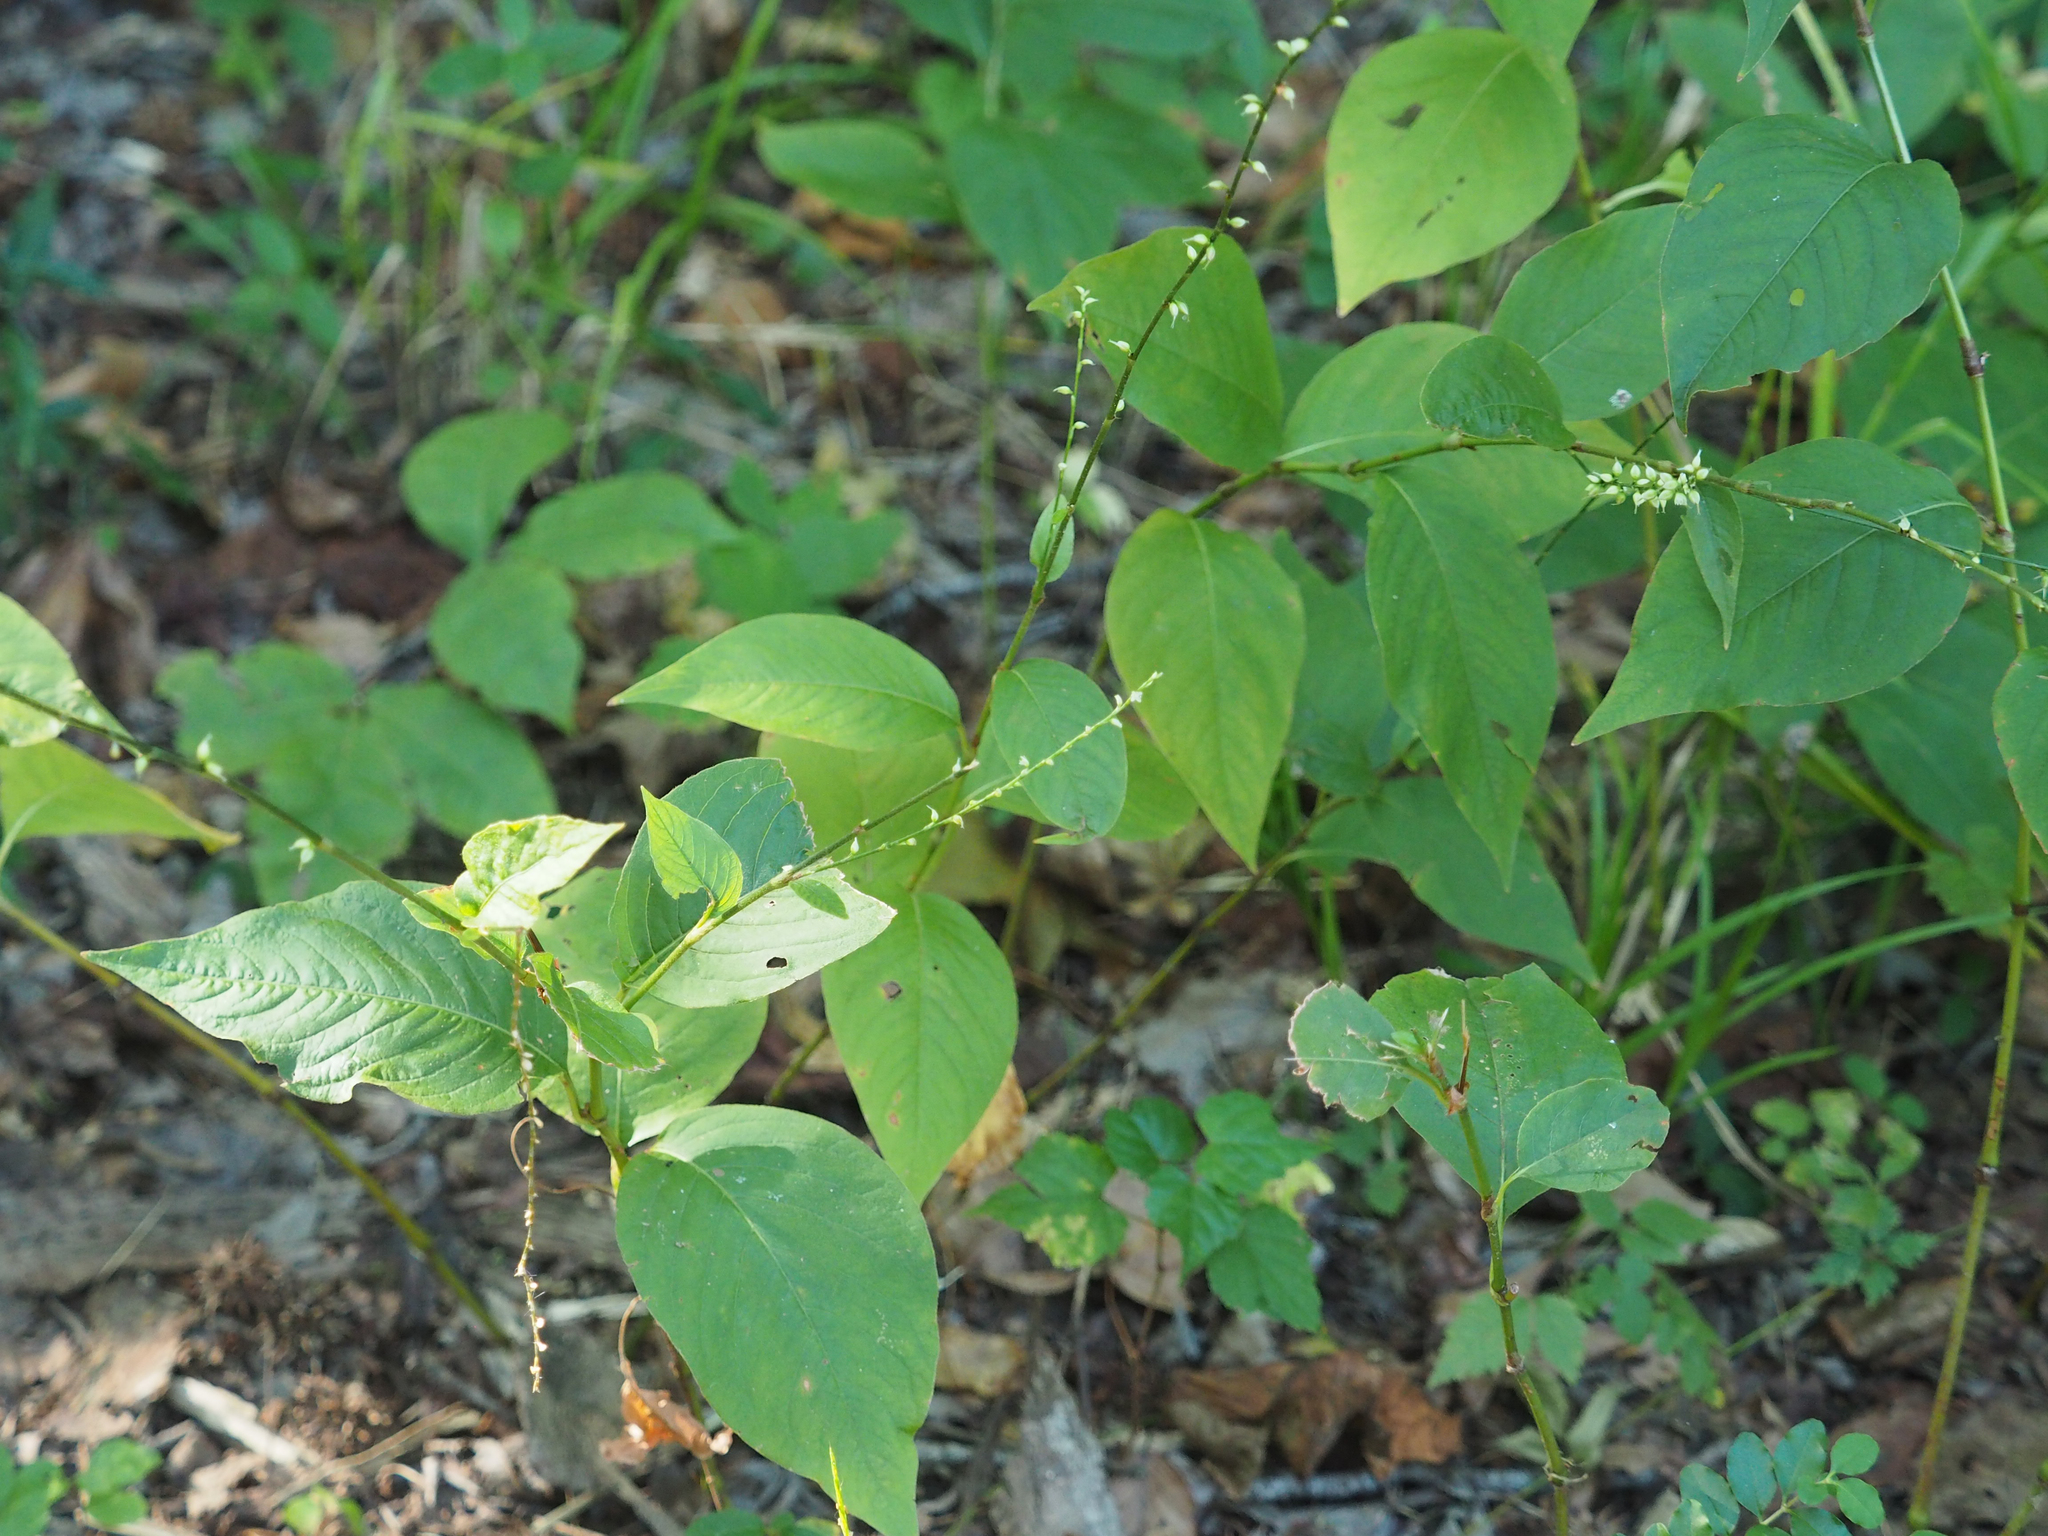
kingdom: Plantae
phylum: Tracheophyta
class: Magnoliopsida
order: Caryophyllales
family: Polygonaceae
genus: Persicaria
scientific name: Persicaria virginiana
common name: Jumpseed
